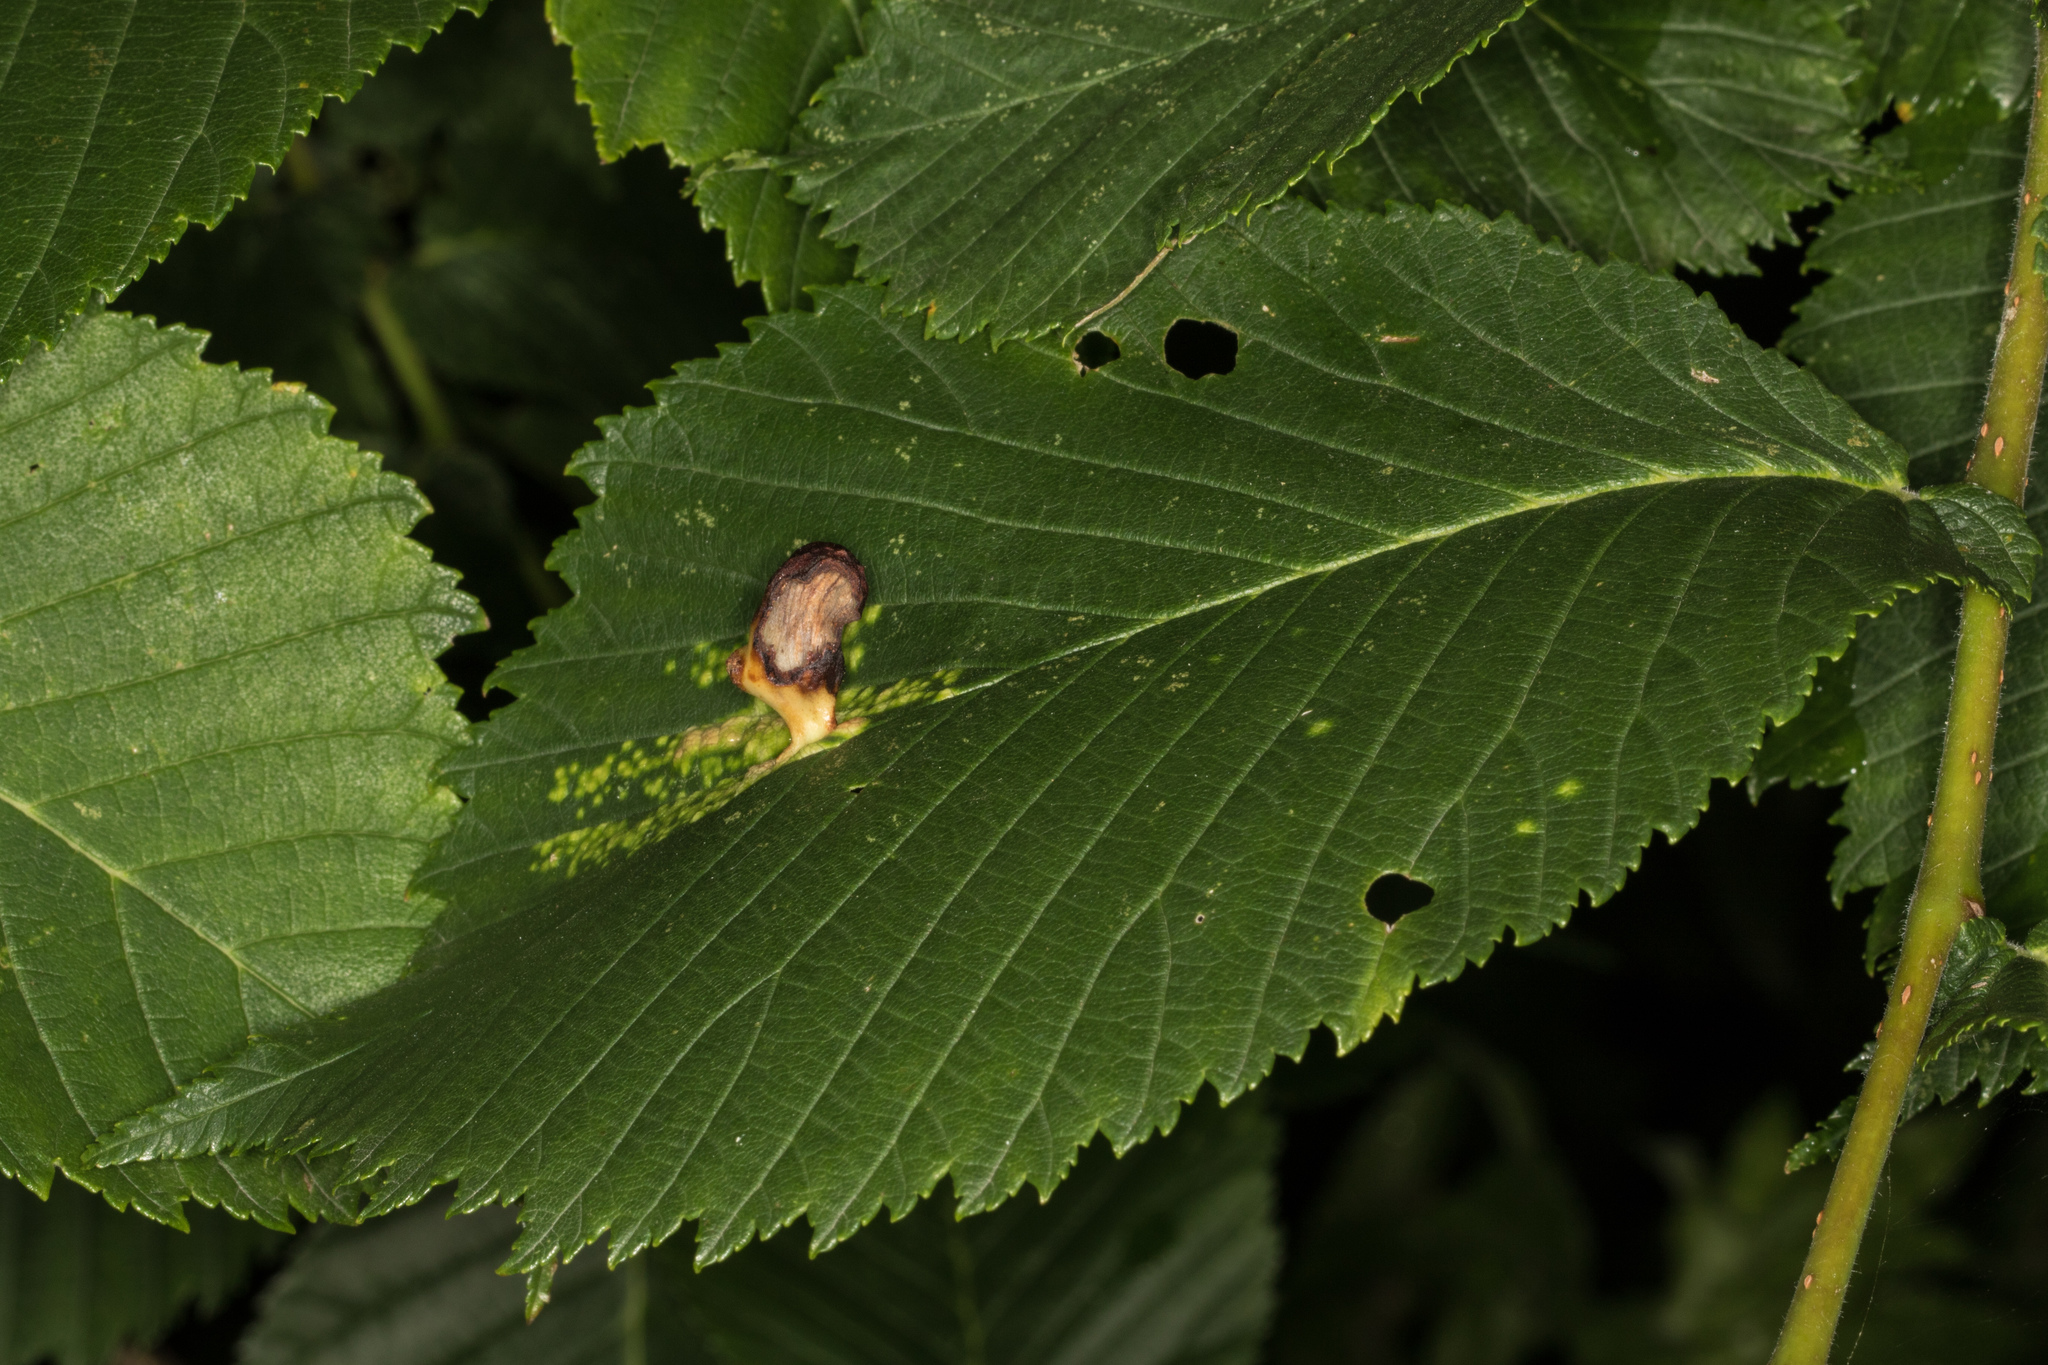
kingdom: Animalia
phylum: Arthropoda
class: Insecta
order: Hemiptera
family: Aphididae
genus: Tetraneura
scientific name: Tetraneura ulmi
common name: Aphid
